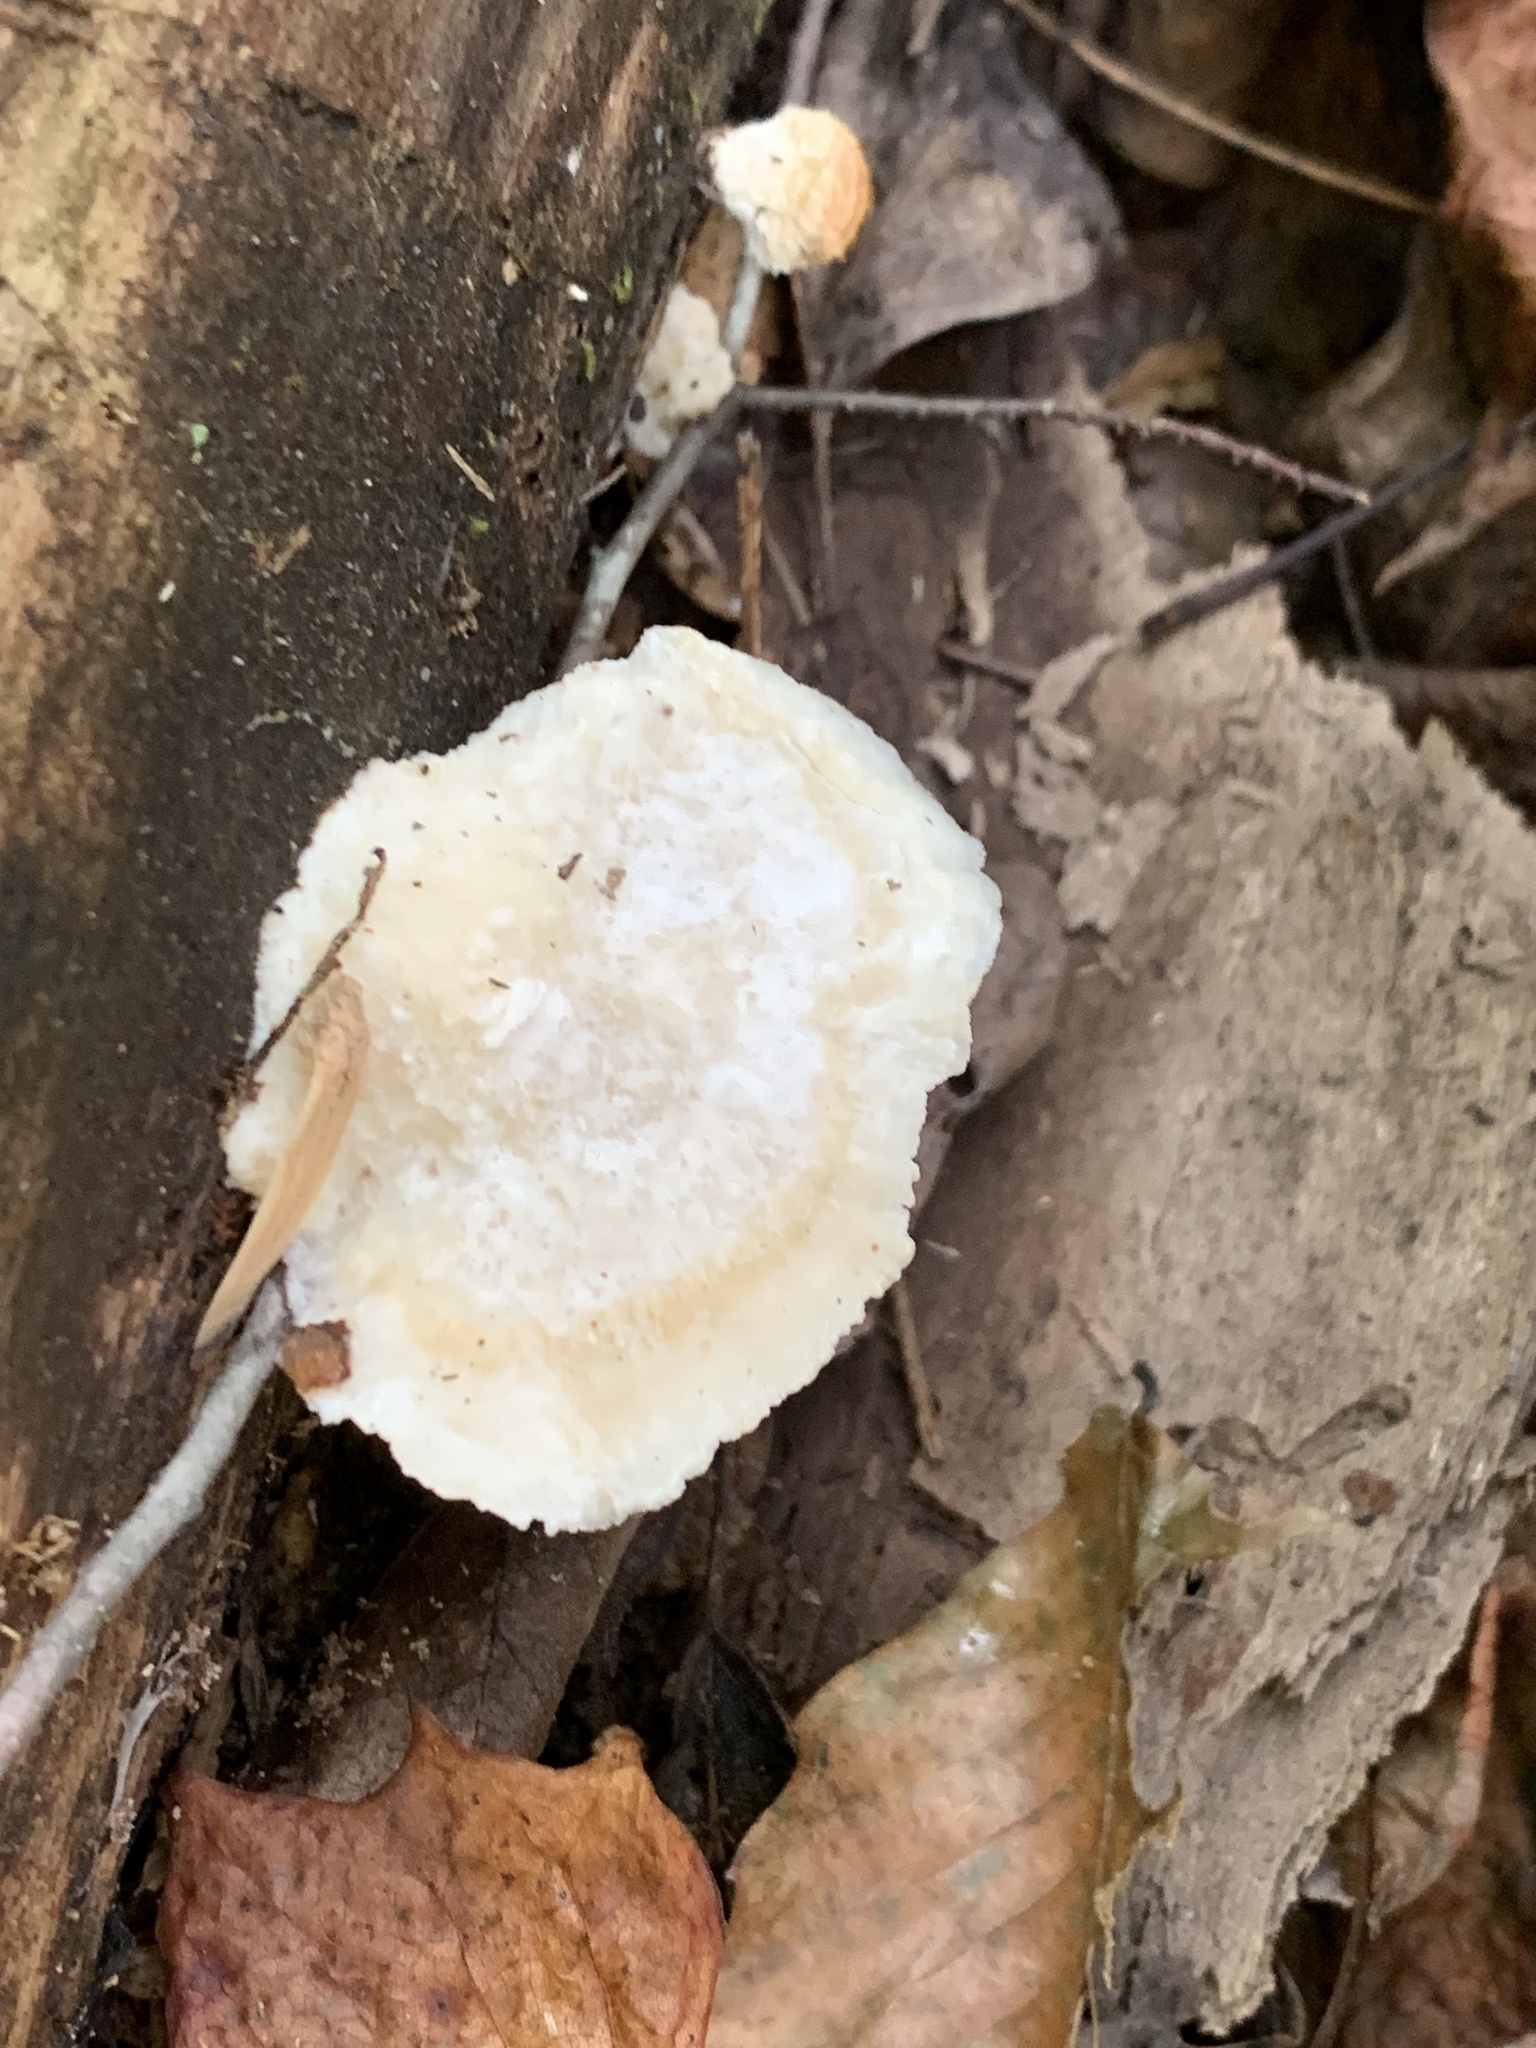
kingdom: Fungi
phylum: Basidiomycota
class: Agaricomycetes
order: Polyporales
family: Incrustoporiaceae
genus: Tyromyces
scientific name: Tyromyces chioneus
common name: White cheese polypore
